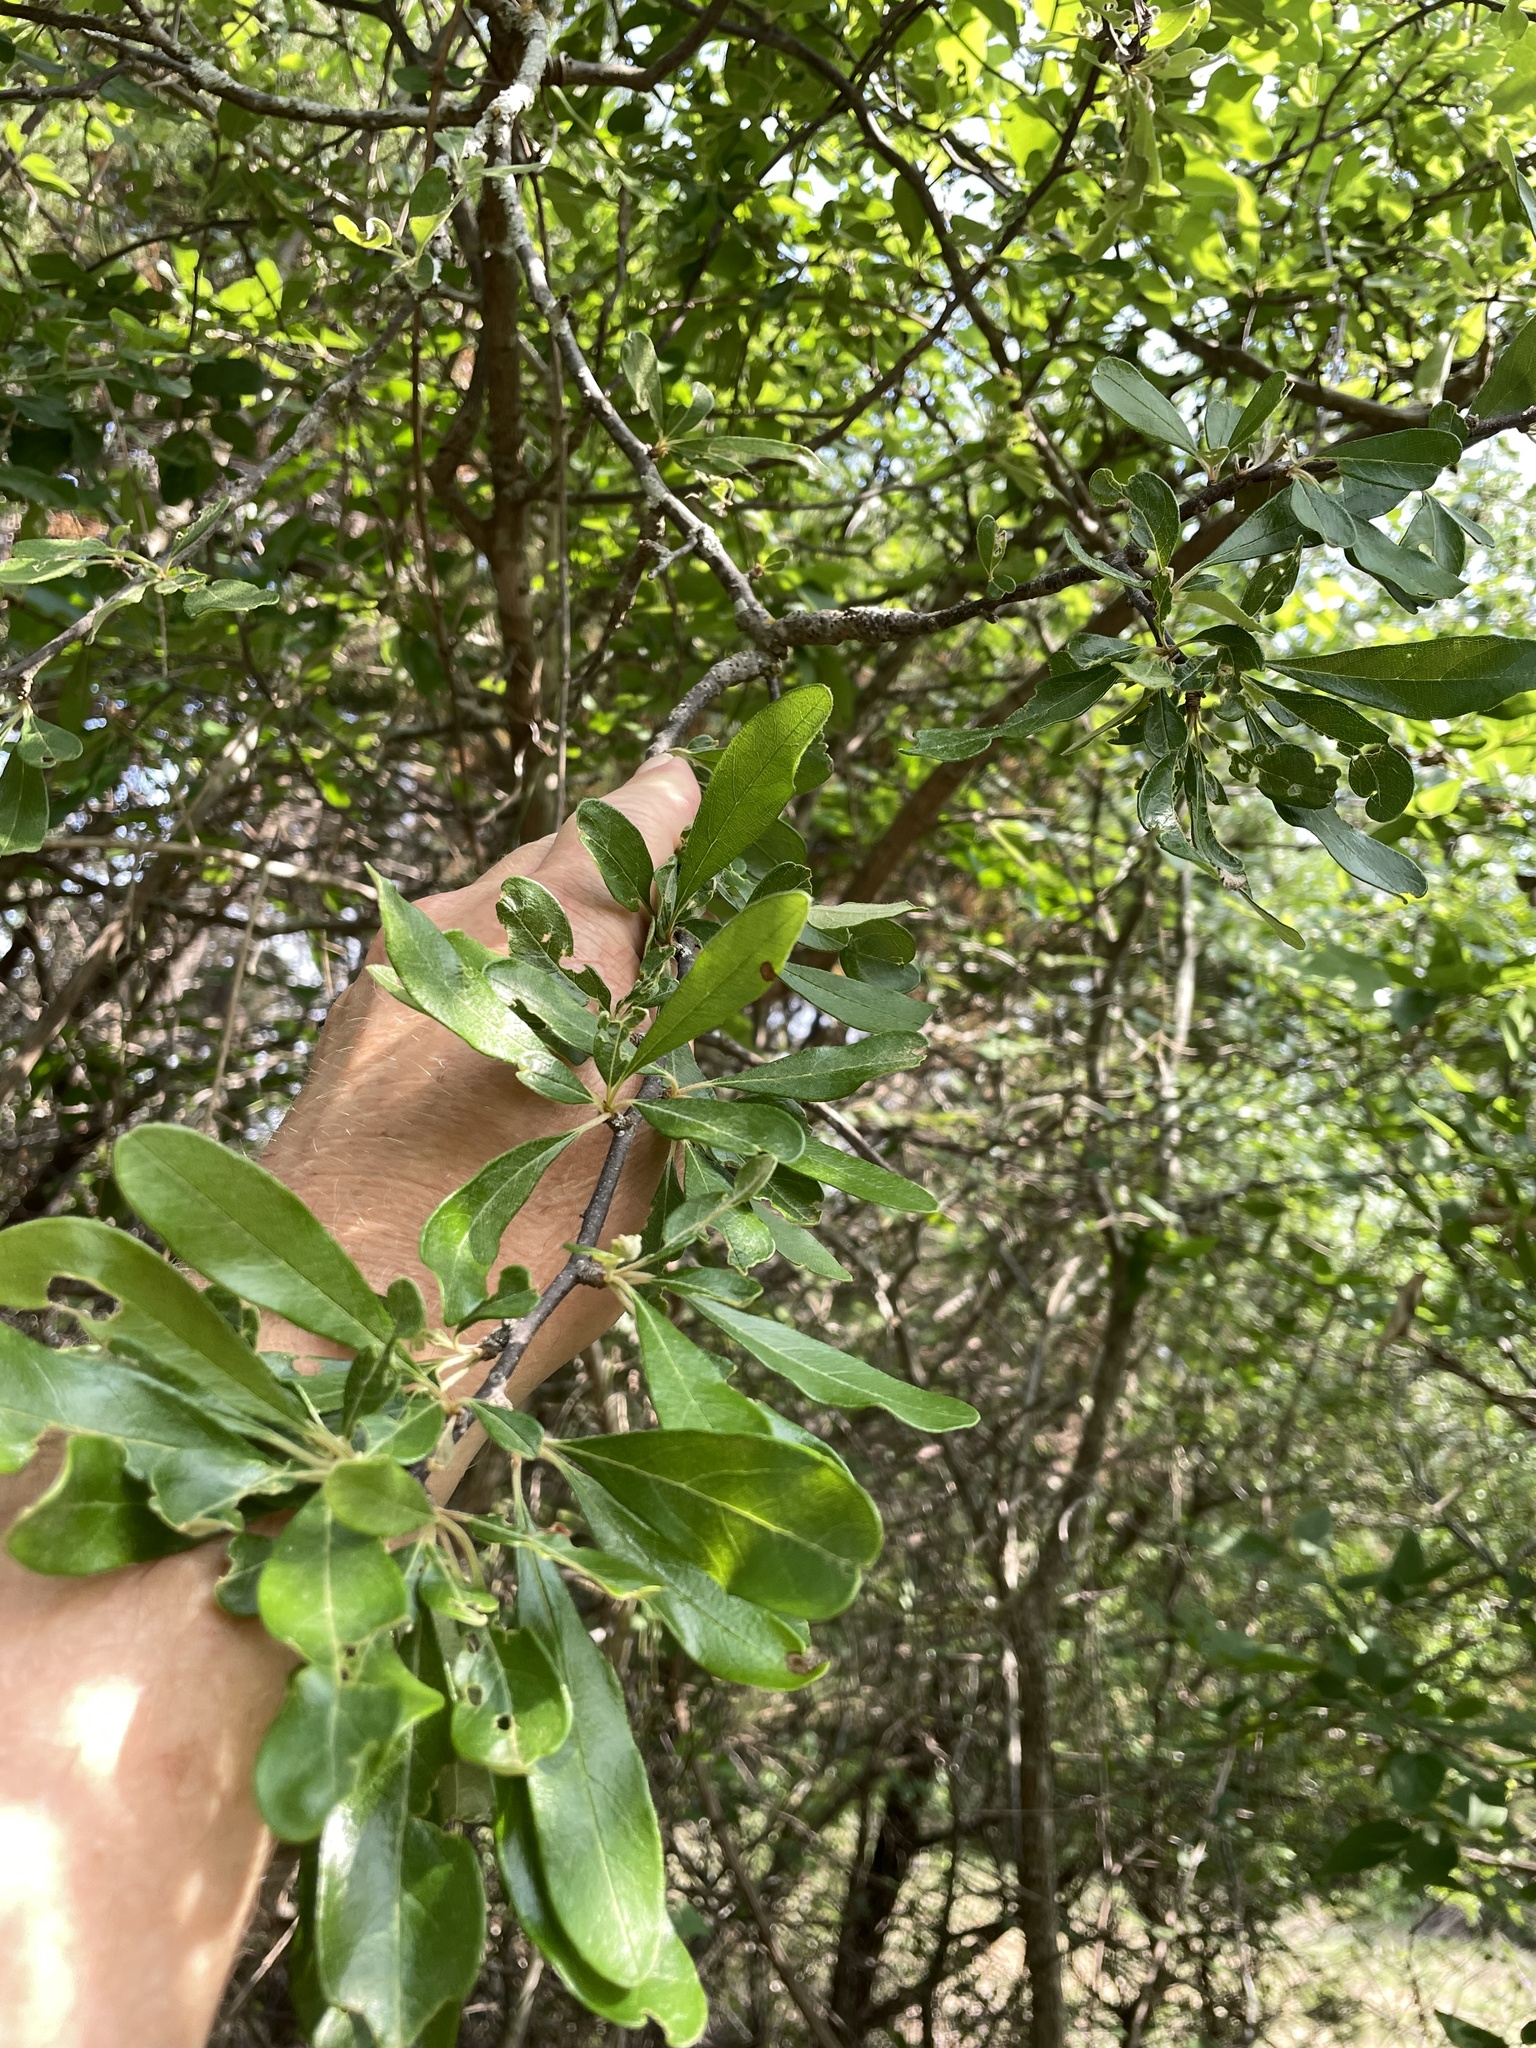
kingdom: Animalia
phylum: Arthropoda
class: Insecta
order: Diptera
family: Cecidomyiidae
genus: Bruggmanniella
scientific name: Bruggmanniella bumeliae
